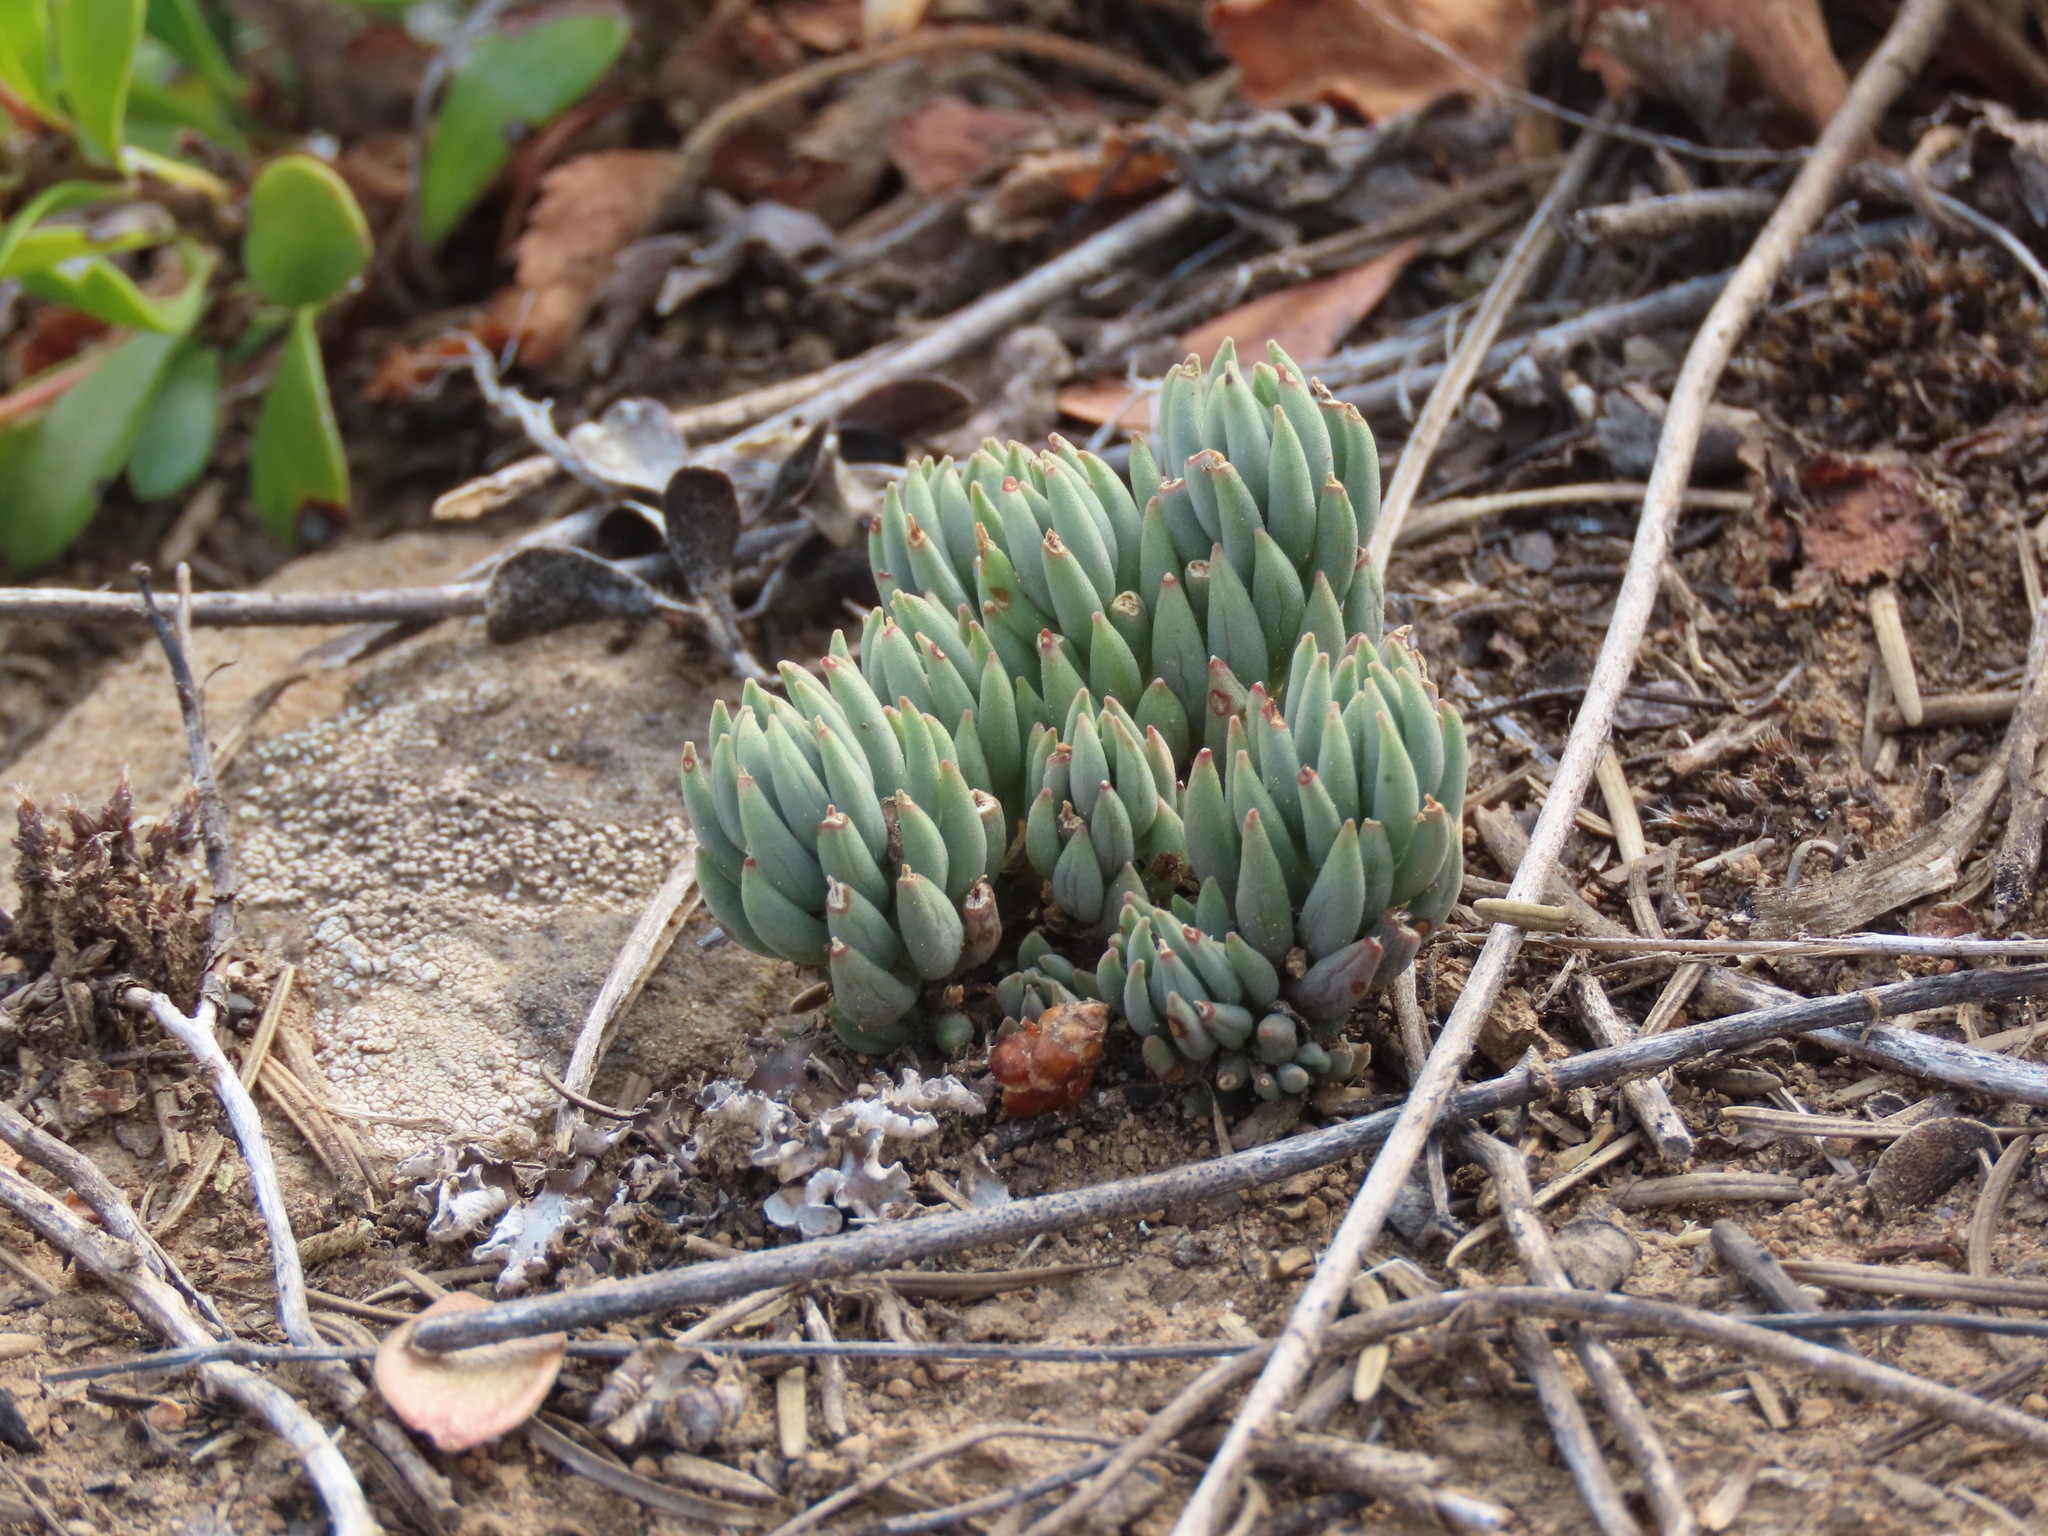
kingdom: Plantae
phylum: Tracheophyta
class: Magnoliopsida
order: Saxifragales
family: Crassulaceae
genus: Sedum
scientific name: Sedum lanceolatum
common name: Common stonecrop
